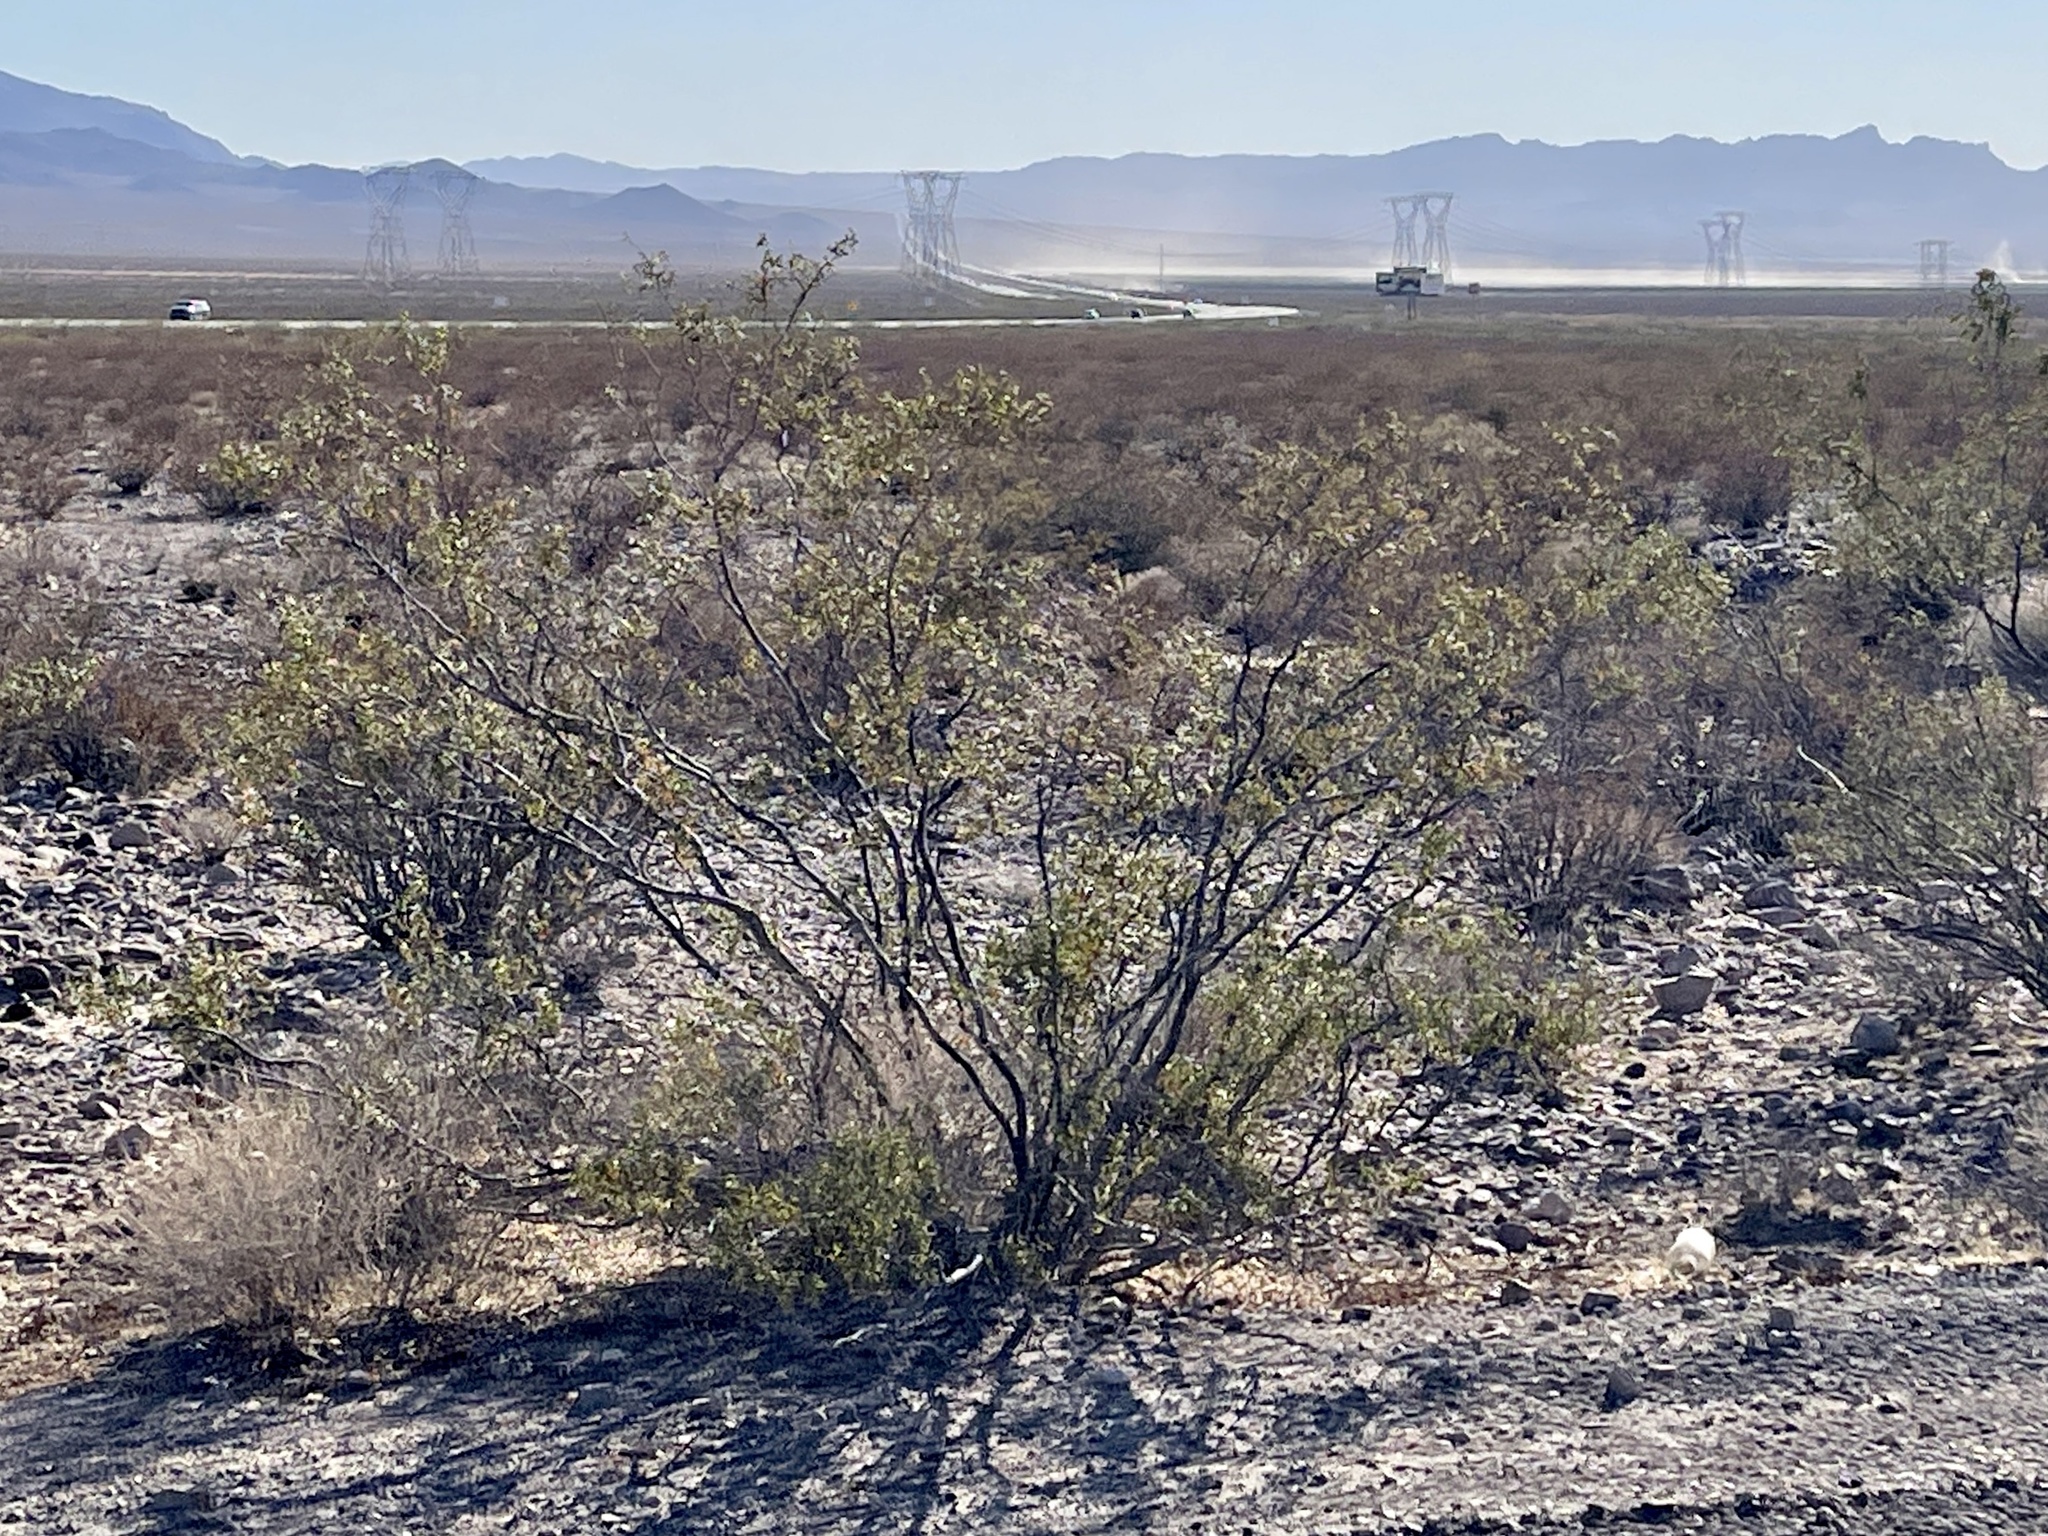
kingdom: Plantae
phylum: Tracheophyta
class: Magnoliopsida
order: Zygophyllales
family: Zygophyllaceae
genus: Larrea
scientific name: Larrea tridentata
